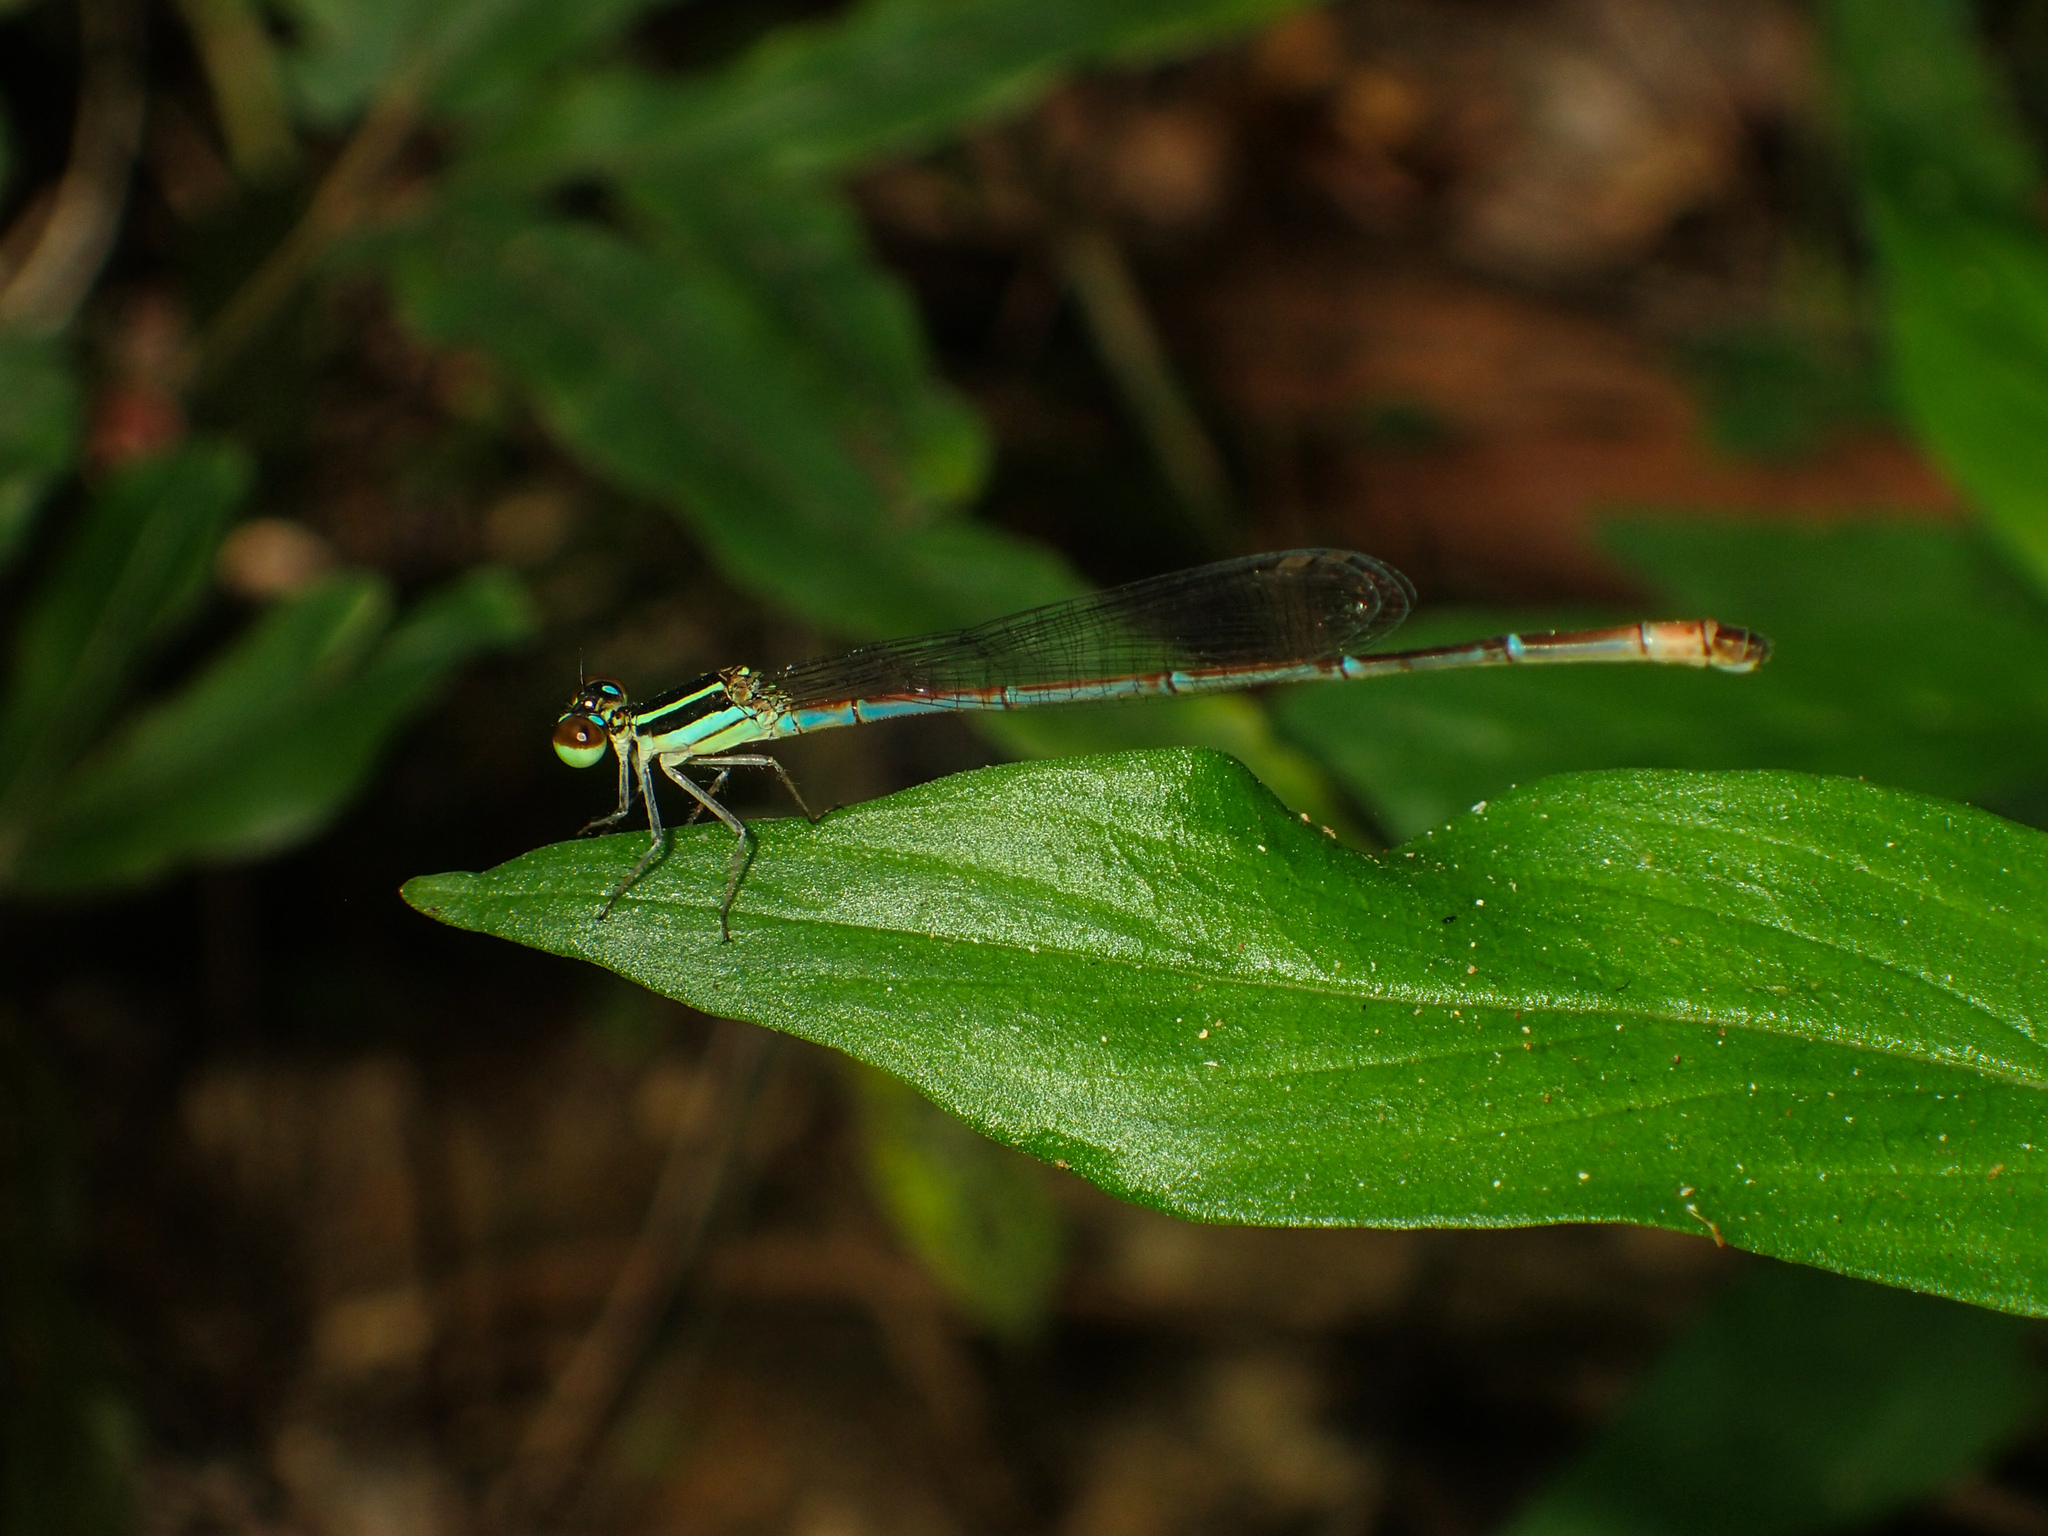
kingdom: Animalia
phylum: Arthropoda
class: Insecta
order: Odonata
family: Coenagrionidae
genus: Argiocnemis
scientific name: Argiocnemis rubescens
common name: Red-tipped shadefly
